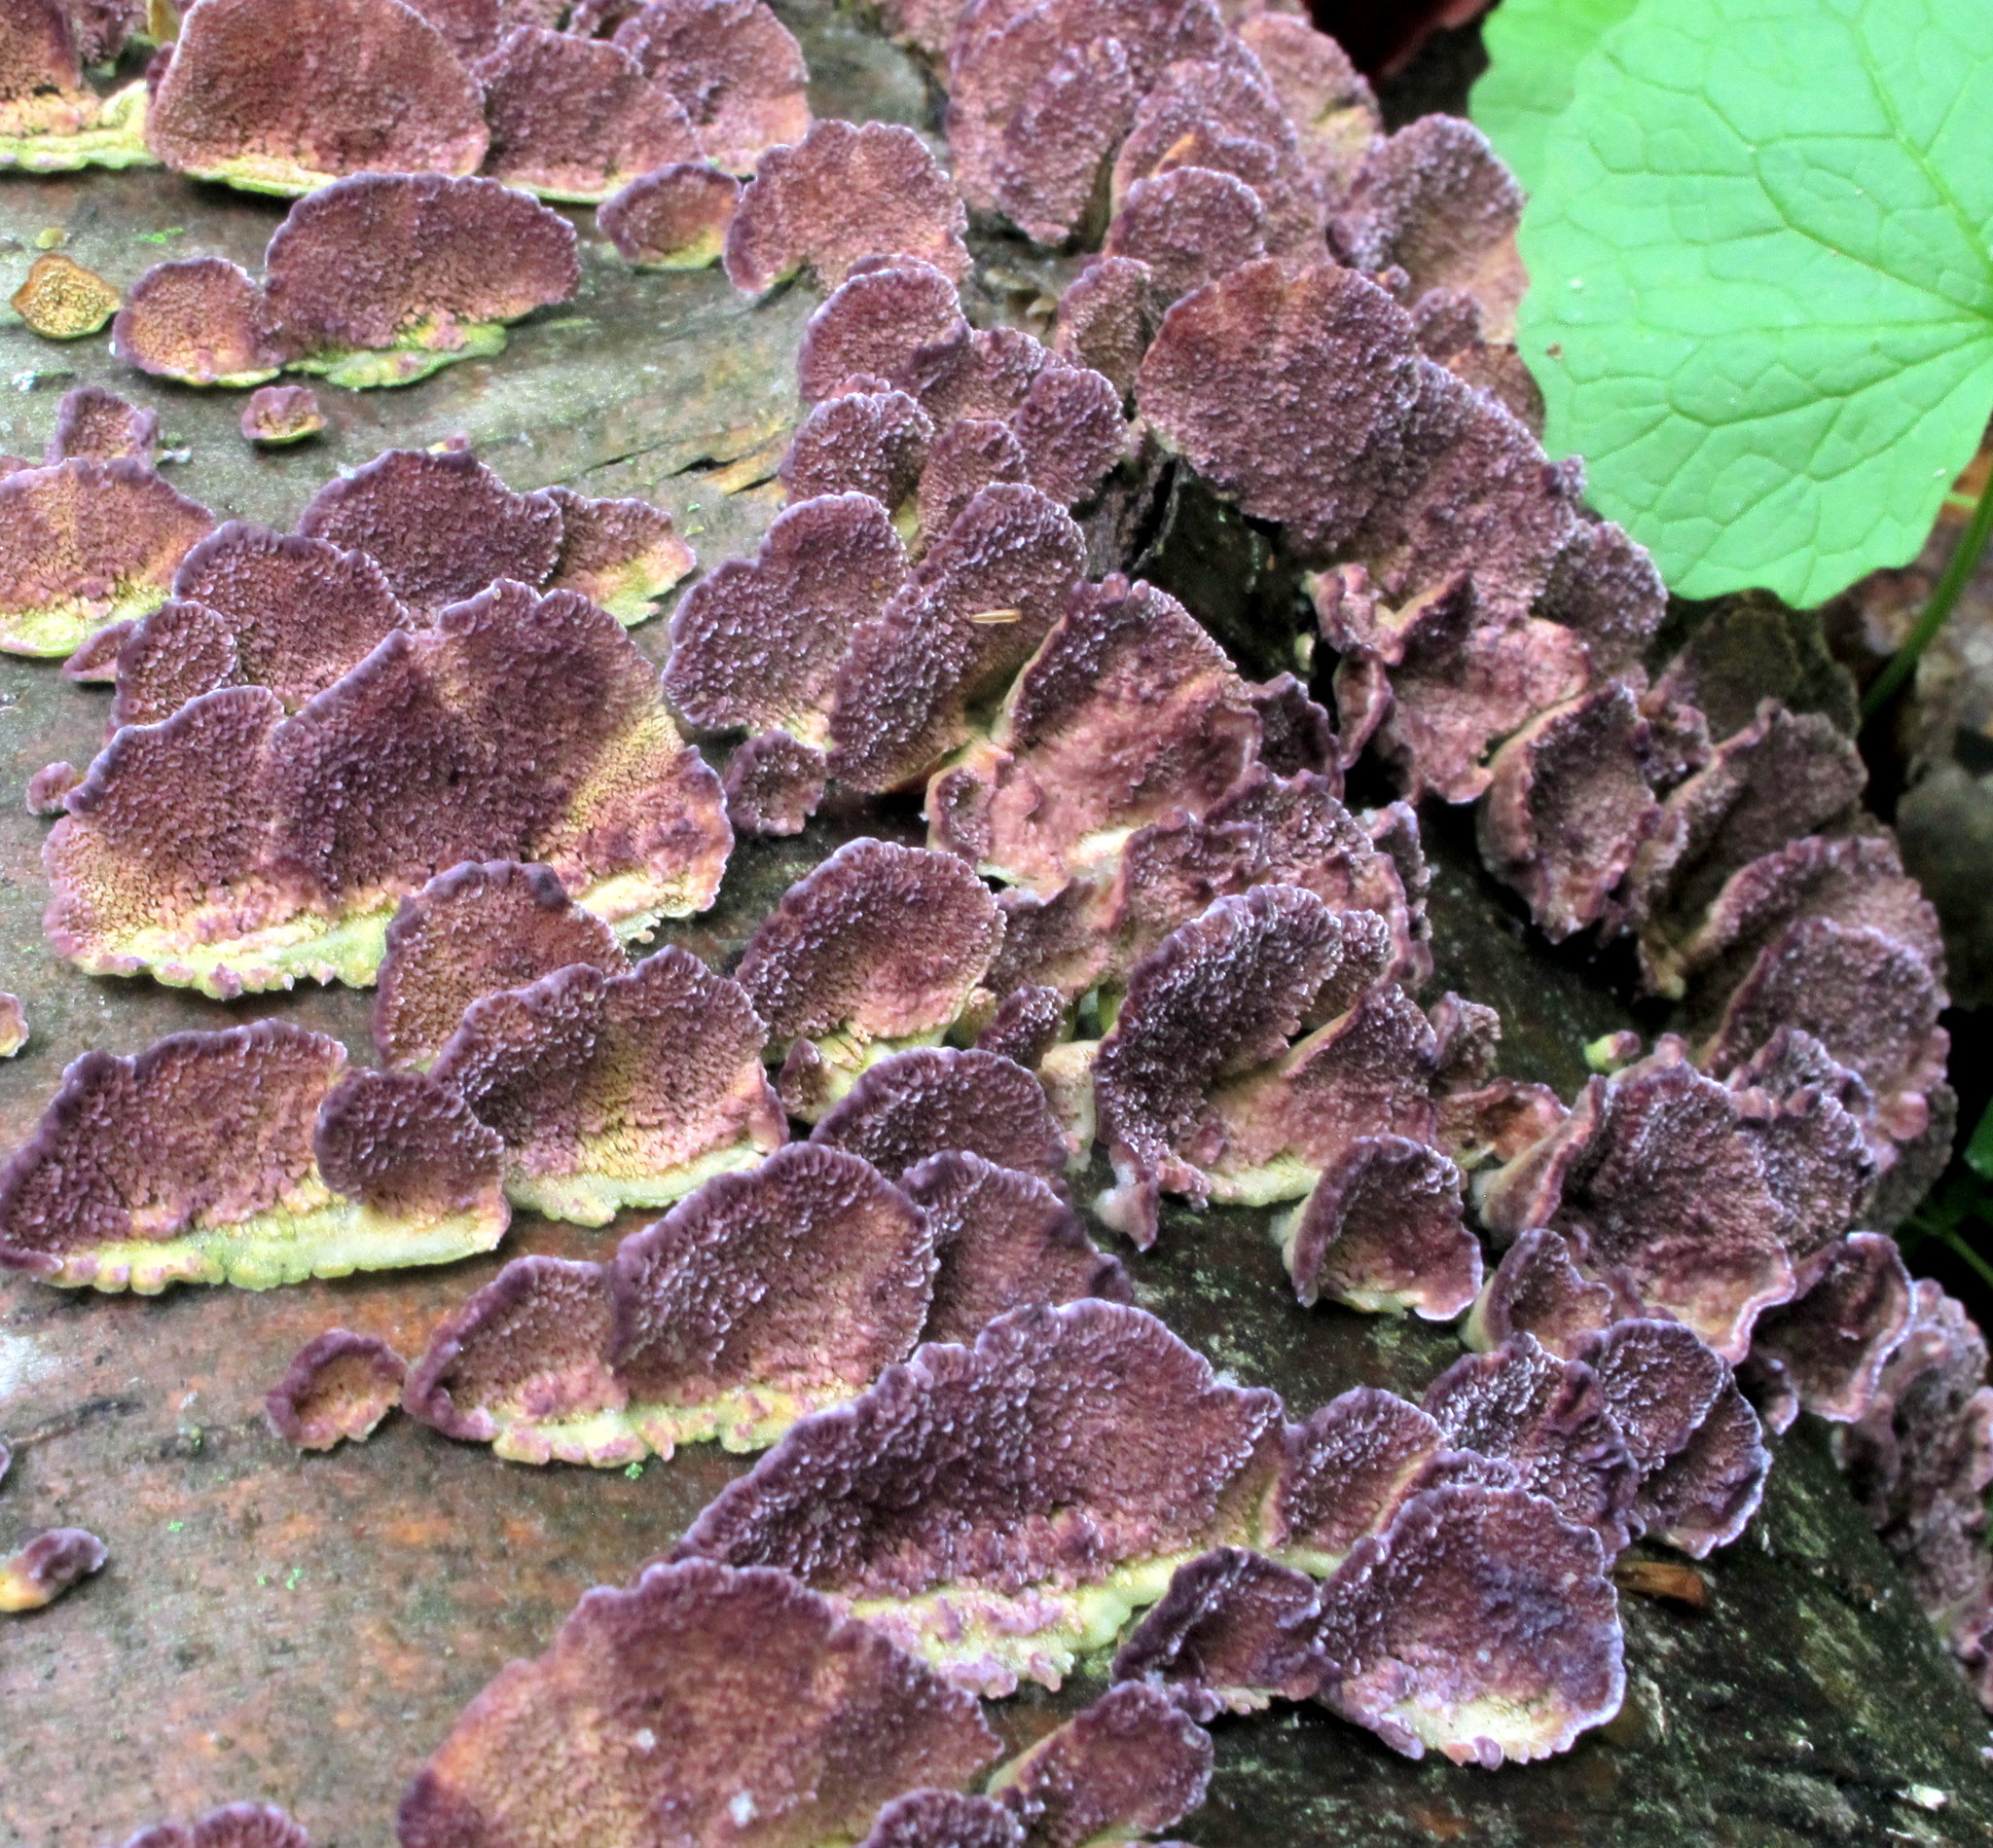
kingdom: Fungi
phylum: Basidiomycota
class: Agaricomycetes
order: Hymenochaetales
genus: Trichaptum
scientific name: Trichaptum biforme
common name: Violet-toothed polypore
